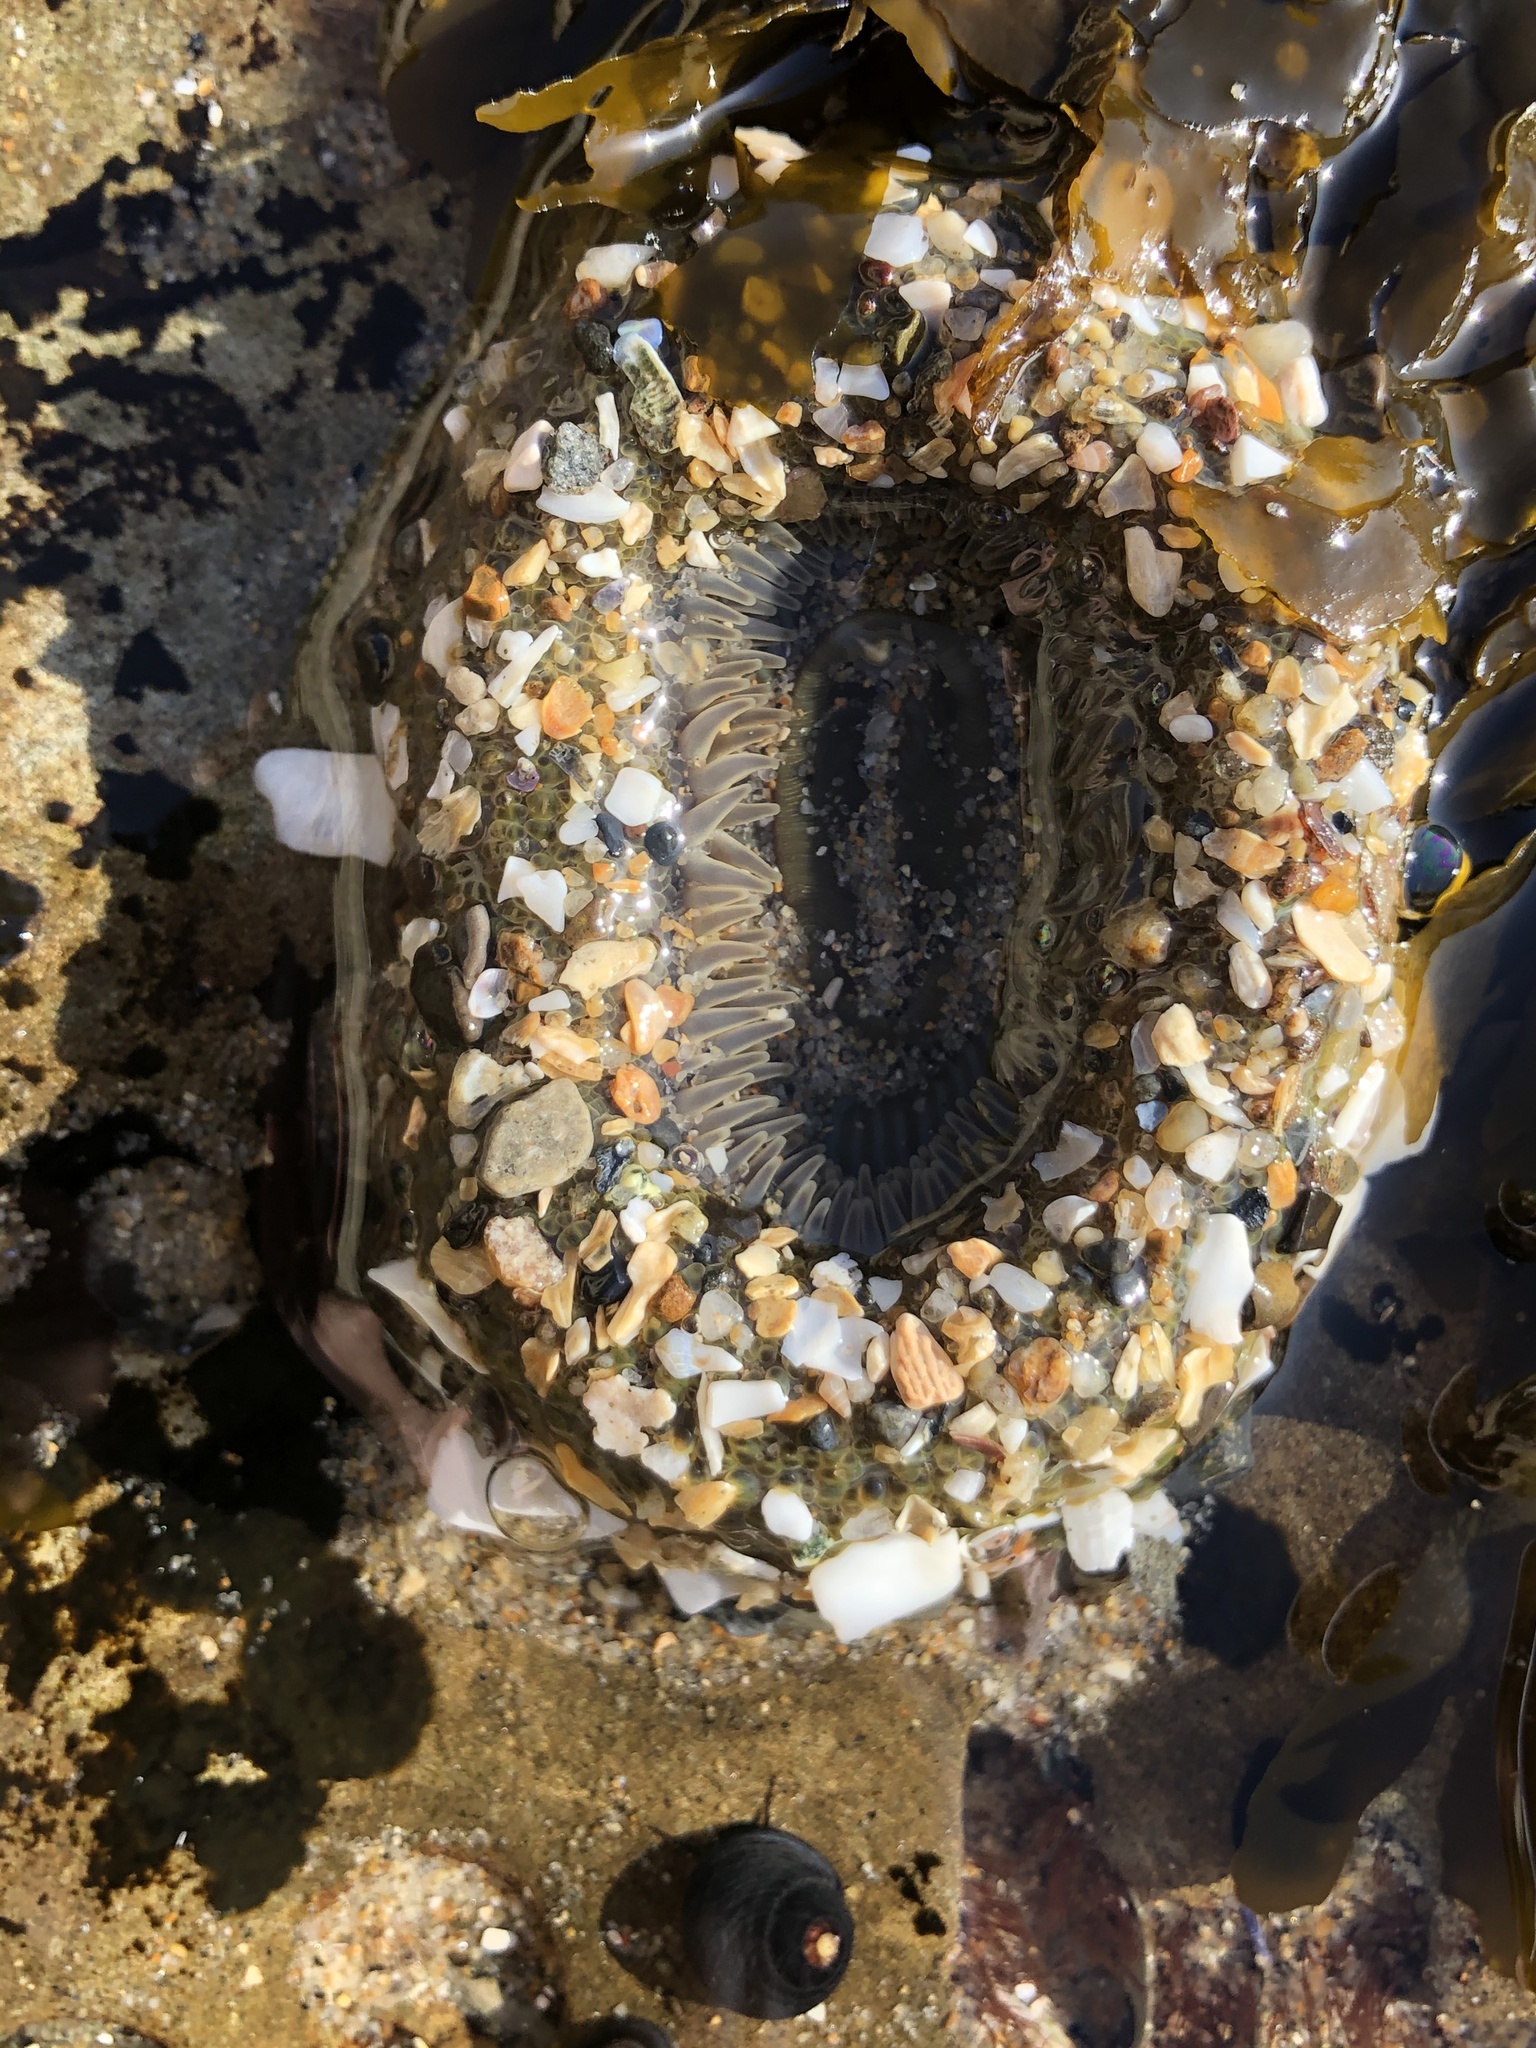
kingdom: Animalia
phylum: Cnidaria
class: Anthozoa
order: Actiniaria
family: Actiniidae
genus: Anthopleura
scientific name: Anthopleura sola
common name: Sun anemone
